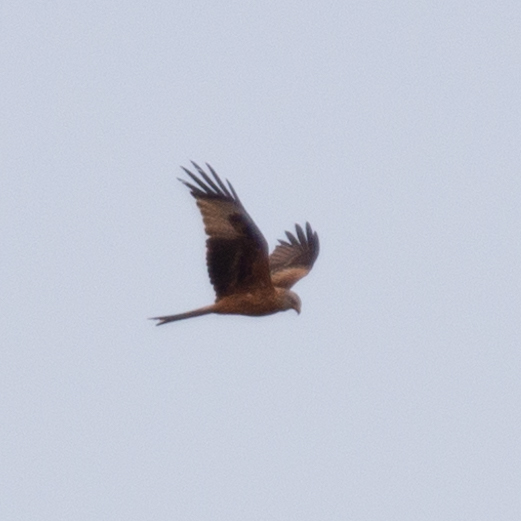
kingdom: Animalia
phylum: Chordata
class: Aves
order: Accipitriformes
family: Accipitridae
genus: Milvus
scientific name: Milvus milvus
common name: Red kite
